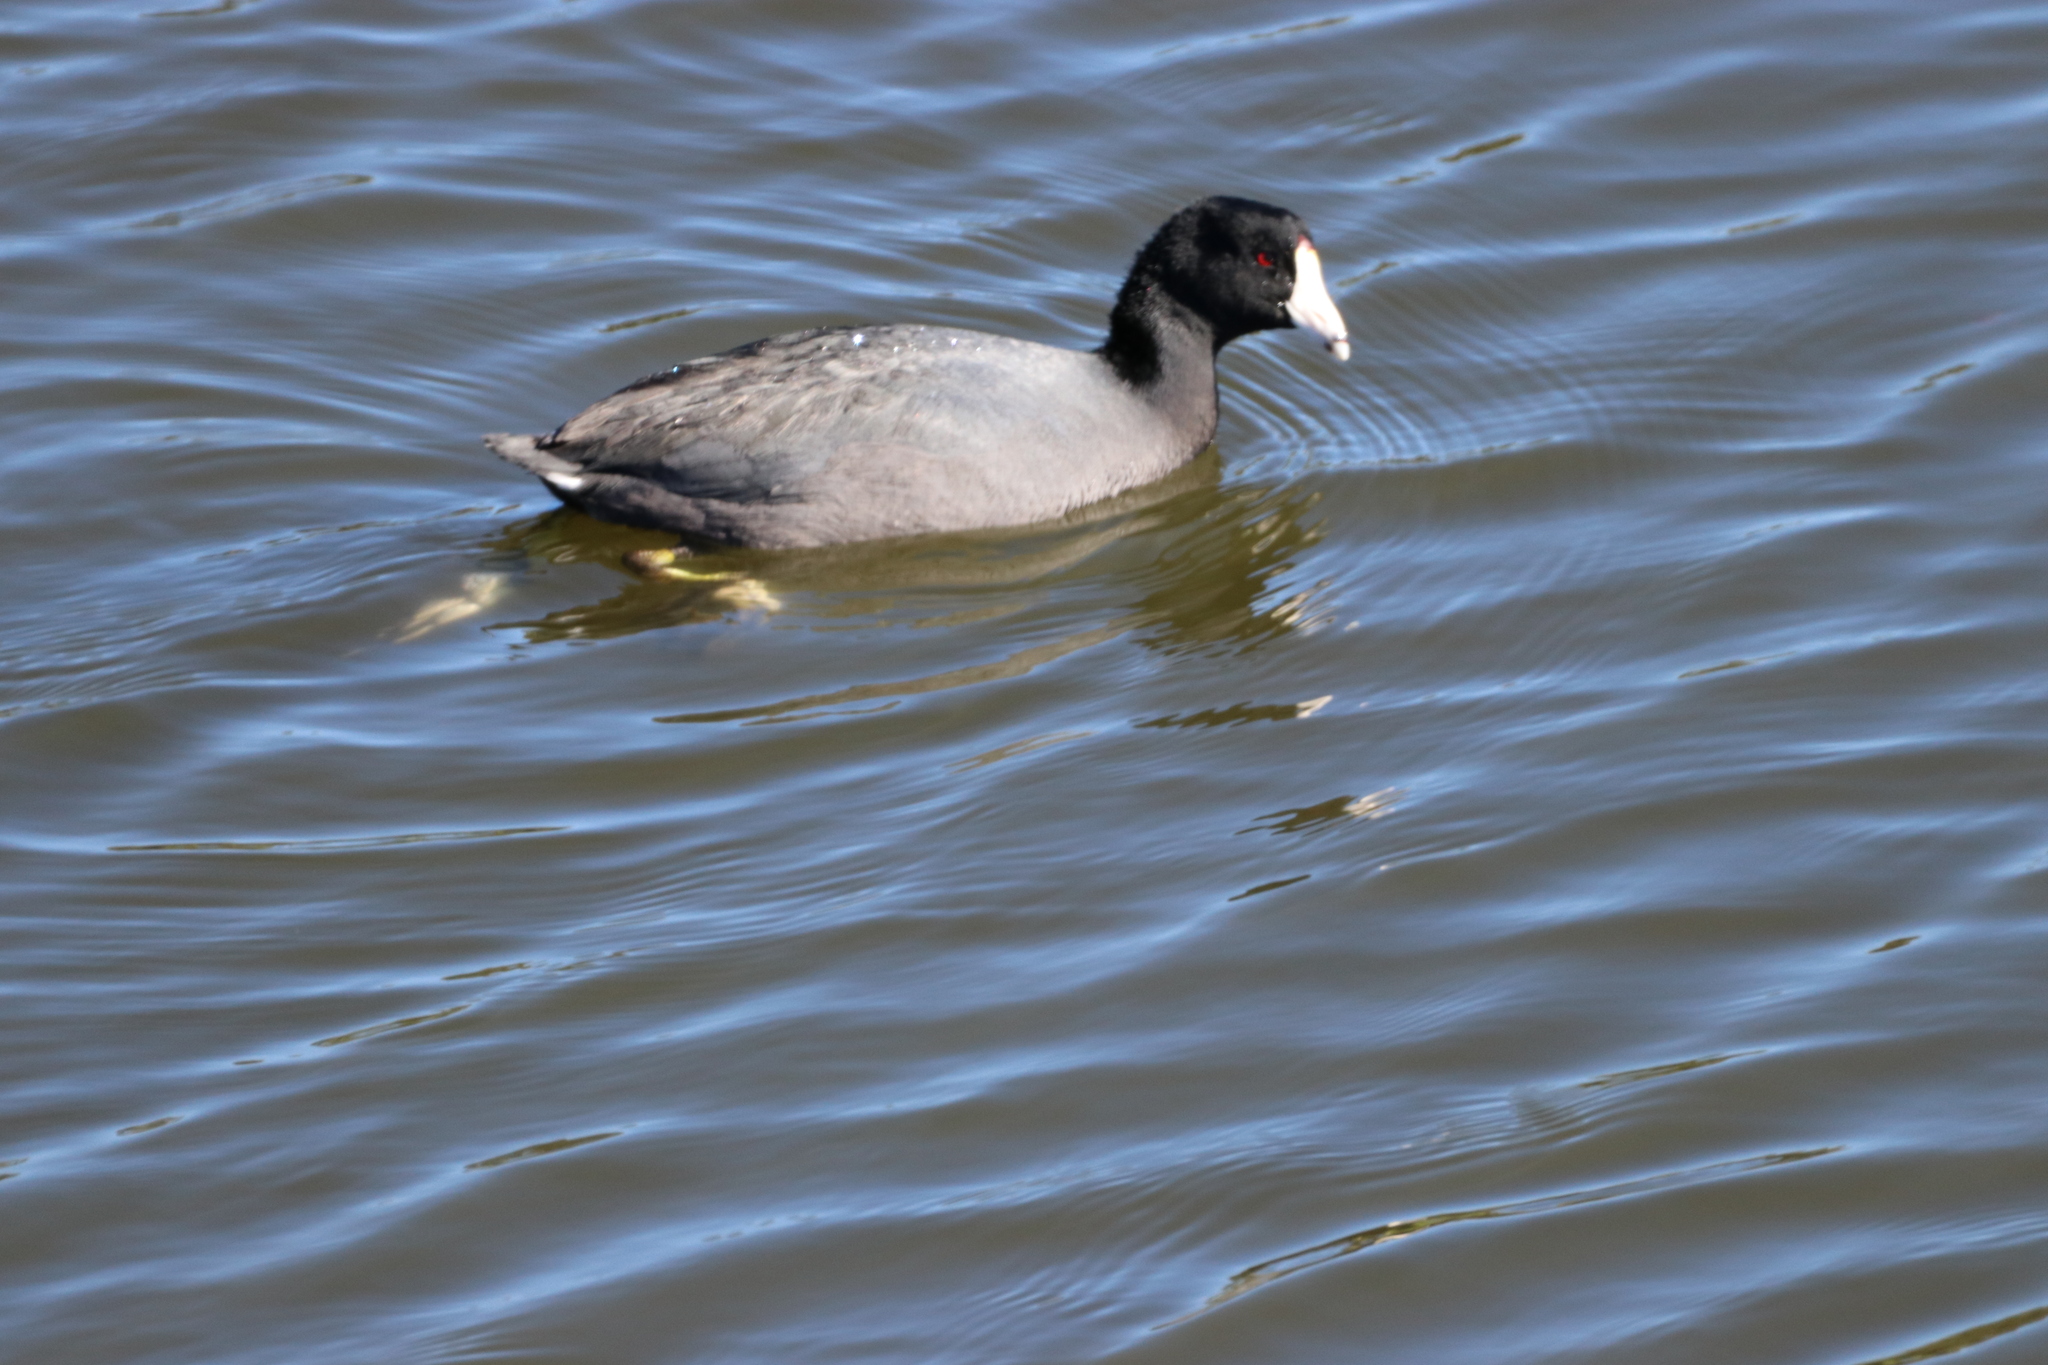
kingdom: Animalia
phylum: Chordata
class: Aves
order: Gruiformes
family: Rallidae
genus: Fulica
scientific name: Fulica americana
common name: American coot
